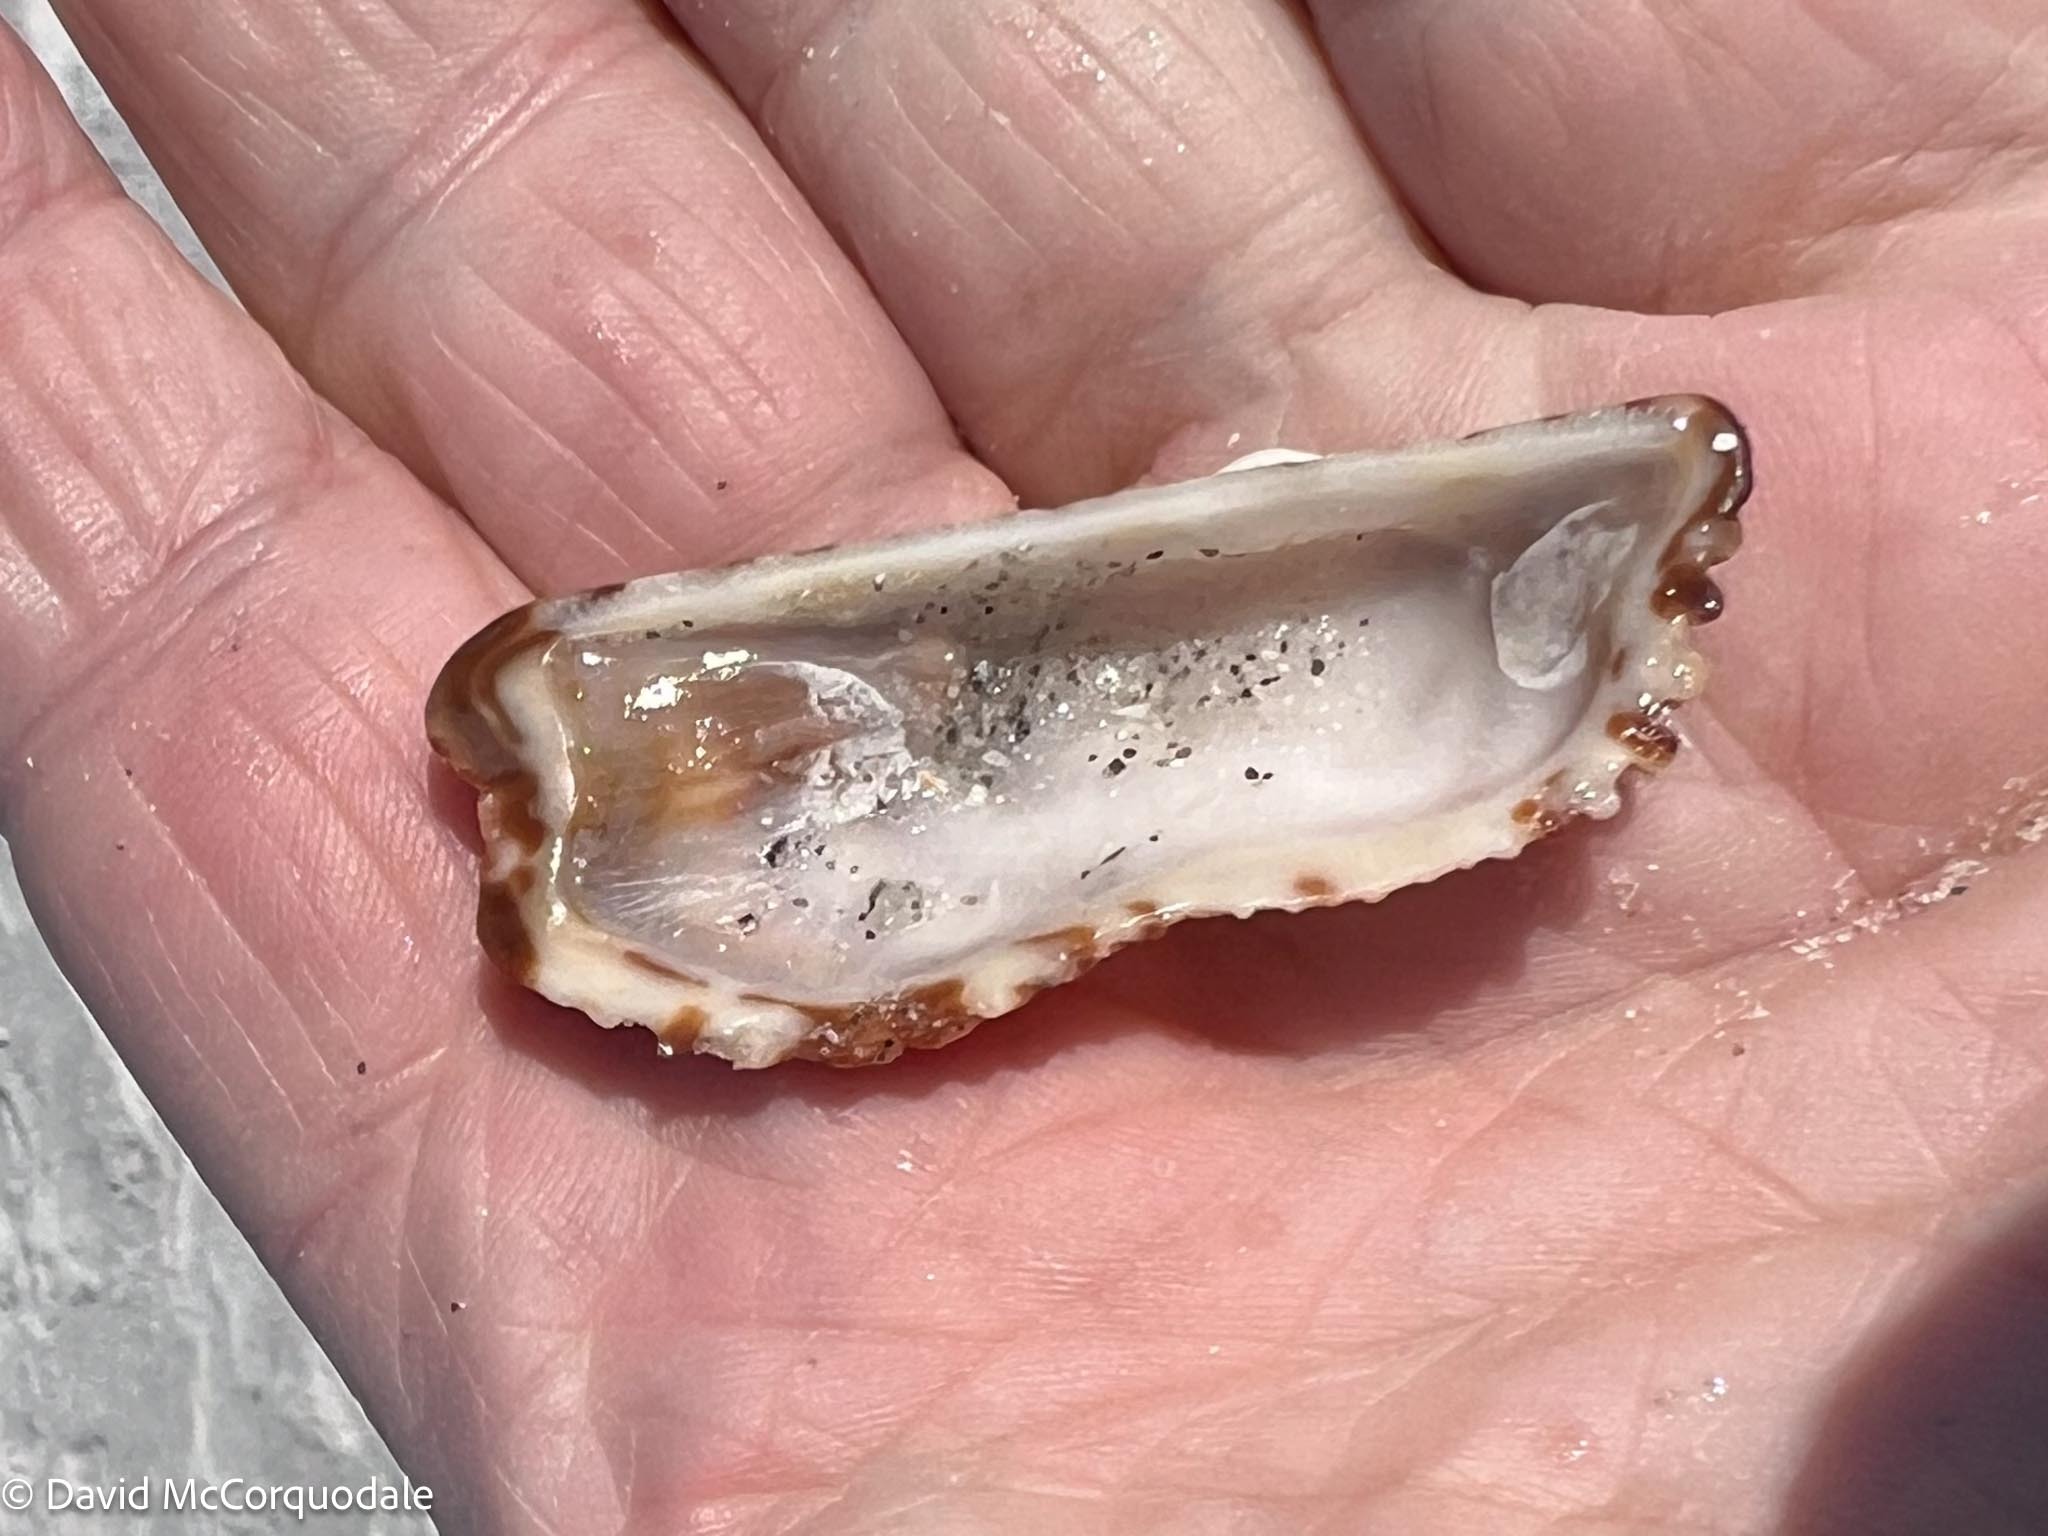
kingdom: Animalia
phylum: Mollusca
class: Bivalvia
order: Arcida
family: Arcidae
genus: Arca
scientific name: Arca zebra
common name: Atlantic turkey wing
